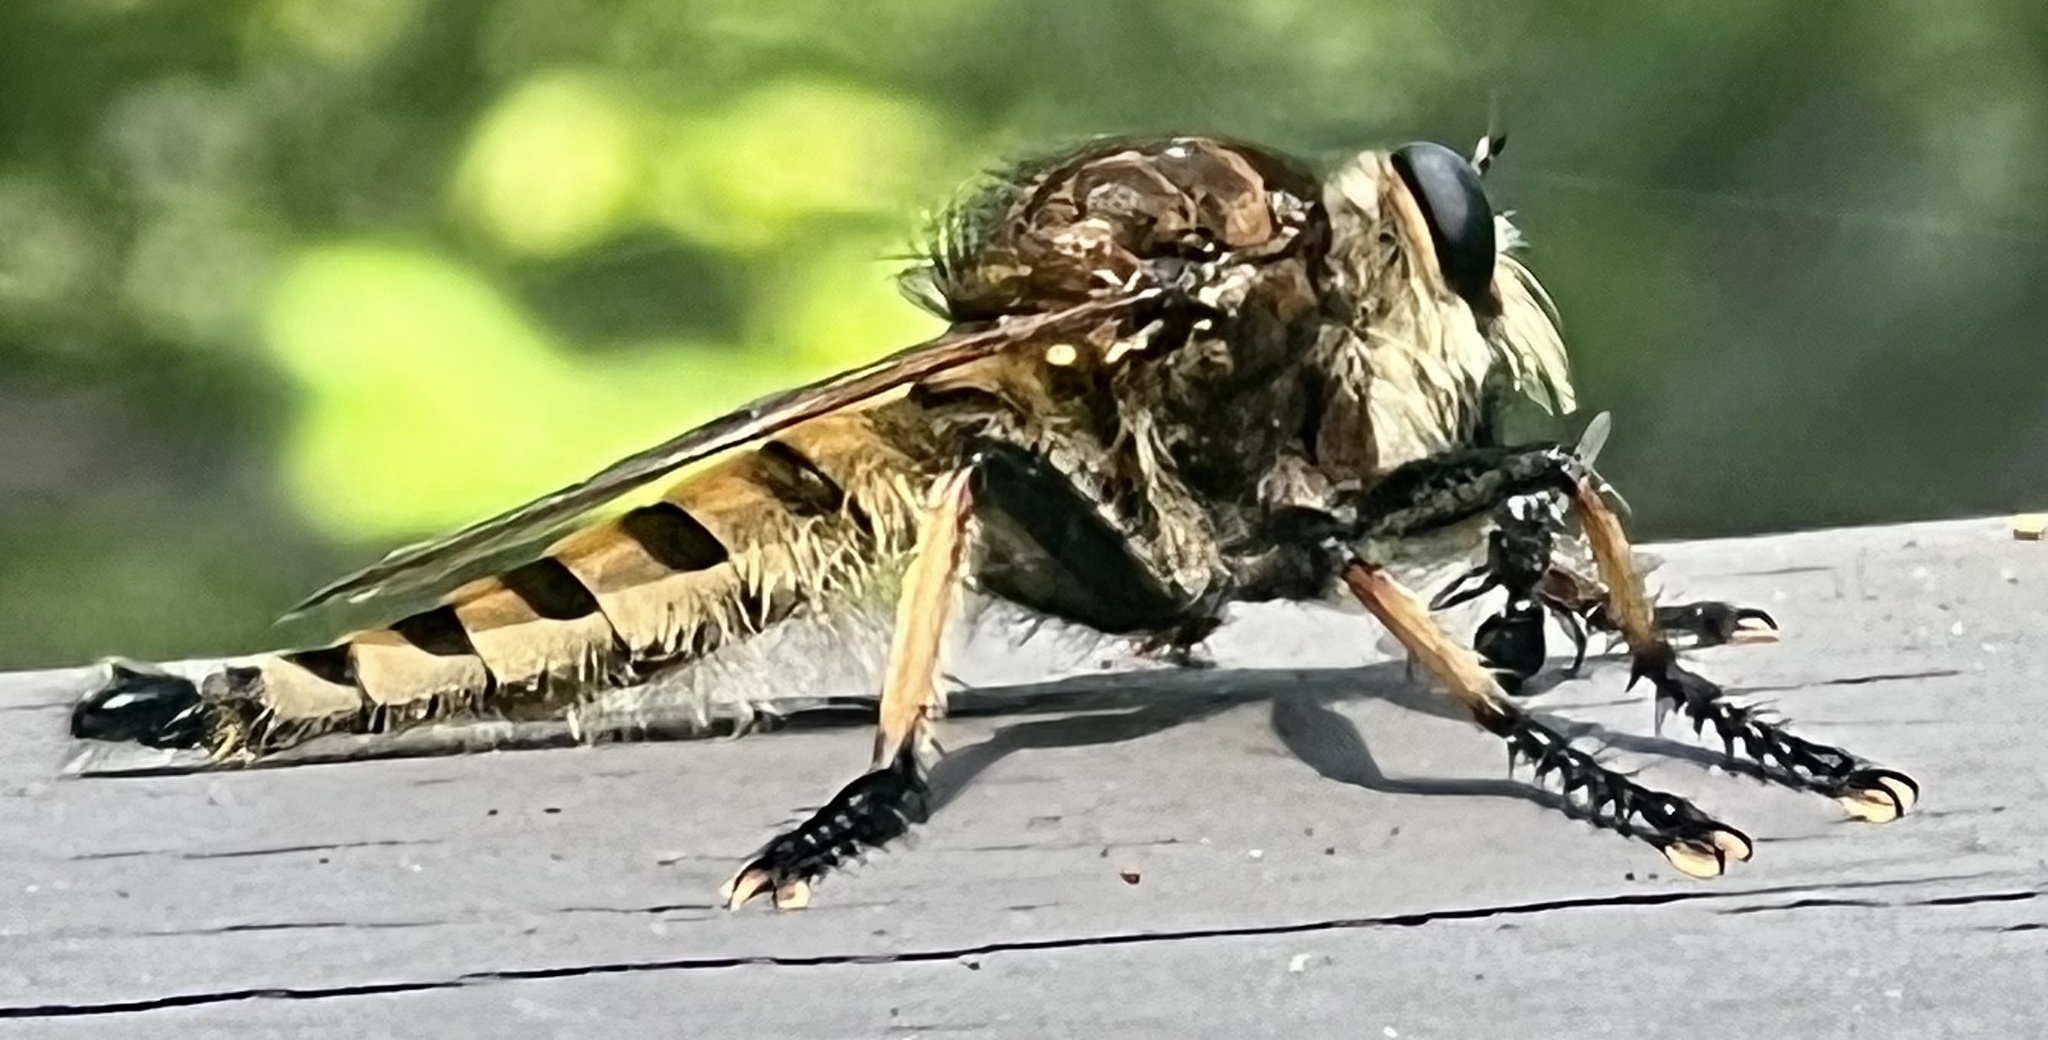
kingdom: Animalia
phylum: Arthropoda
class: Insecta
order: Diptera
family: Asilidae
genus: Promachus
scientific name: Promachus rufipes
